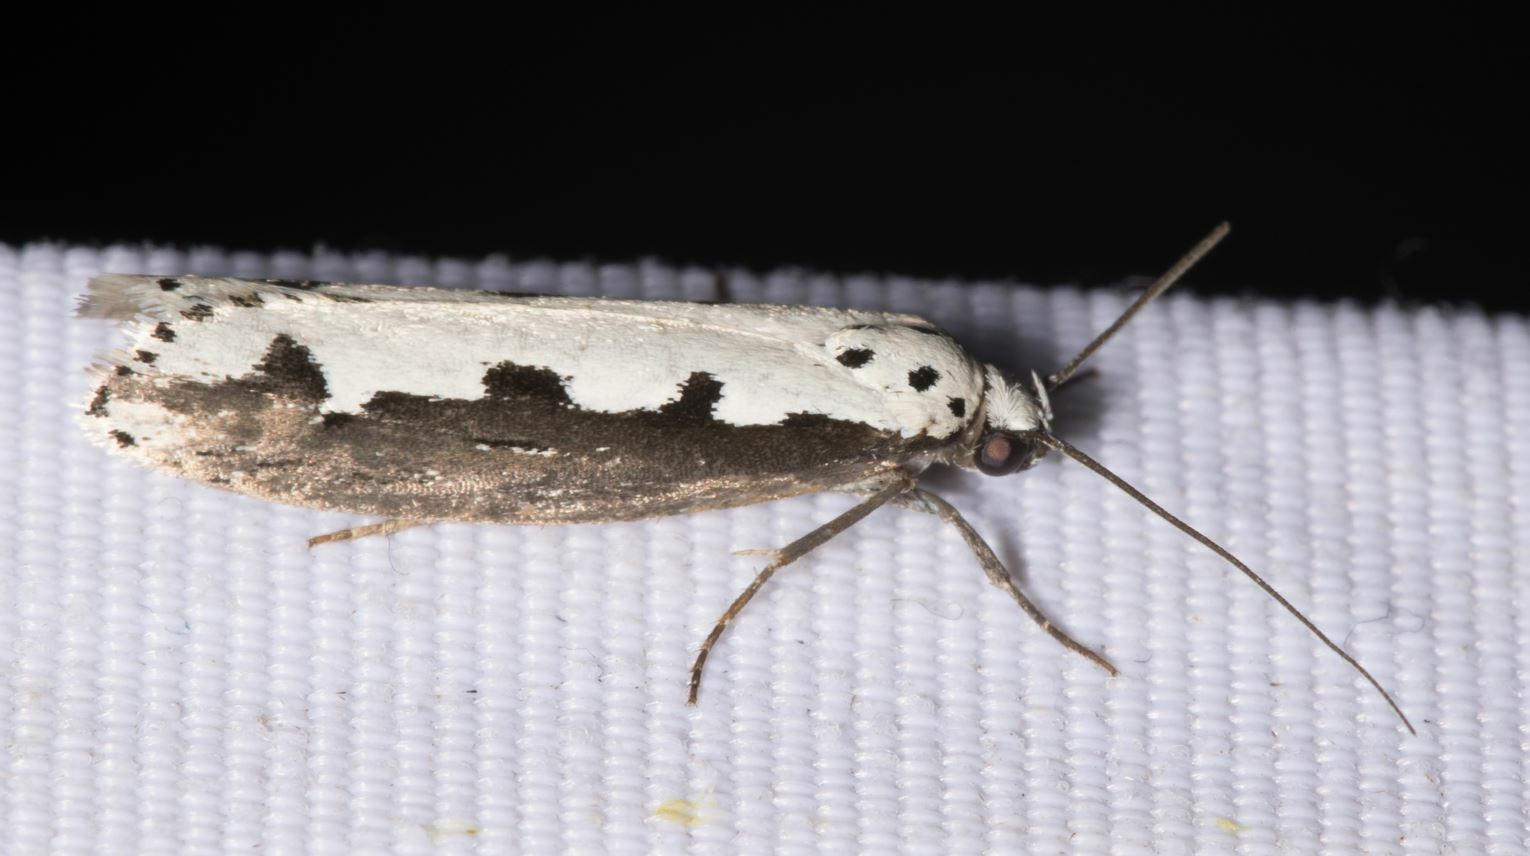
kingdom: Animalia
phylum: Arthropoda
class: Insecta
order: Lepidoptera
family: Ethmiidae
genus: Ethmia
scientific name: Ethmia bipunctella
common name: Bordered ermel
